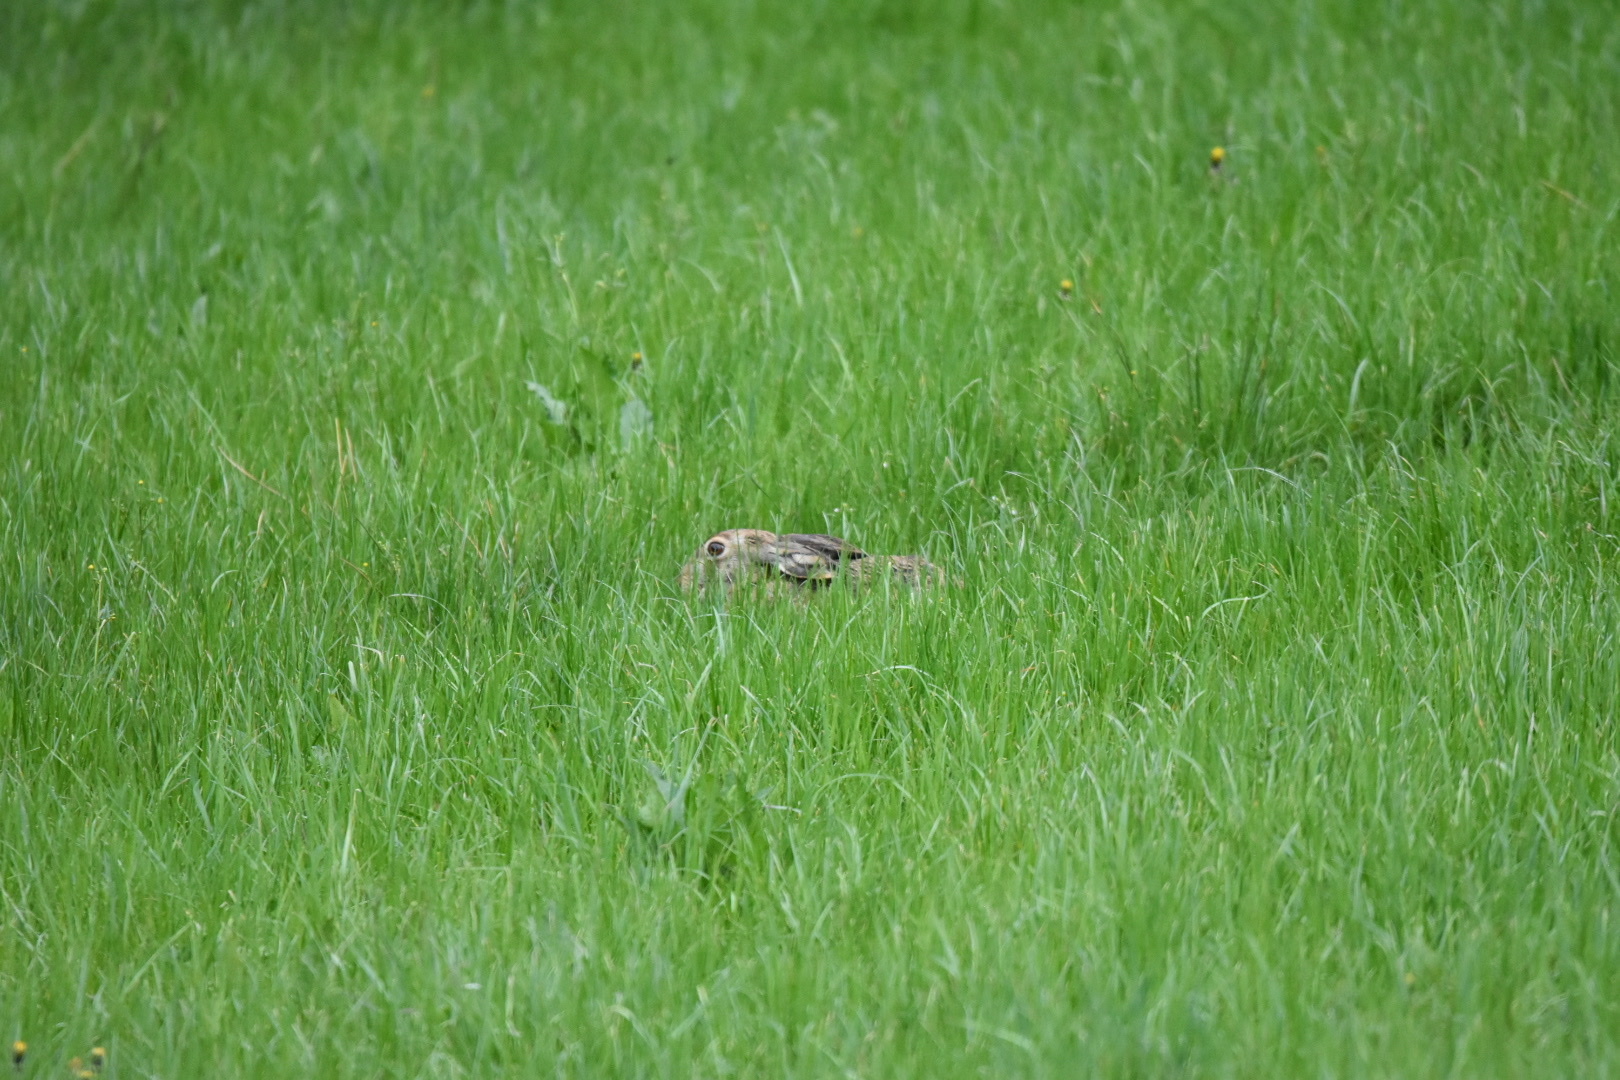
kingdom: Animalia
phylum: Chordata
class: Mammalia
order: Lagomorpha
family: Leporidae
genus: Lepus
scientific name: Lepus europaeus
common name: European hare
